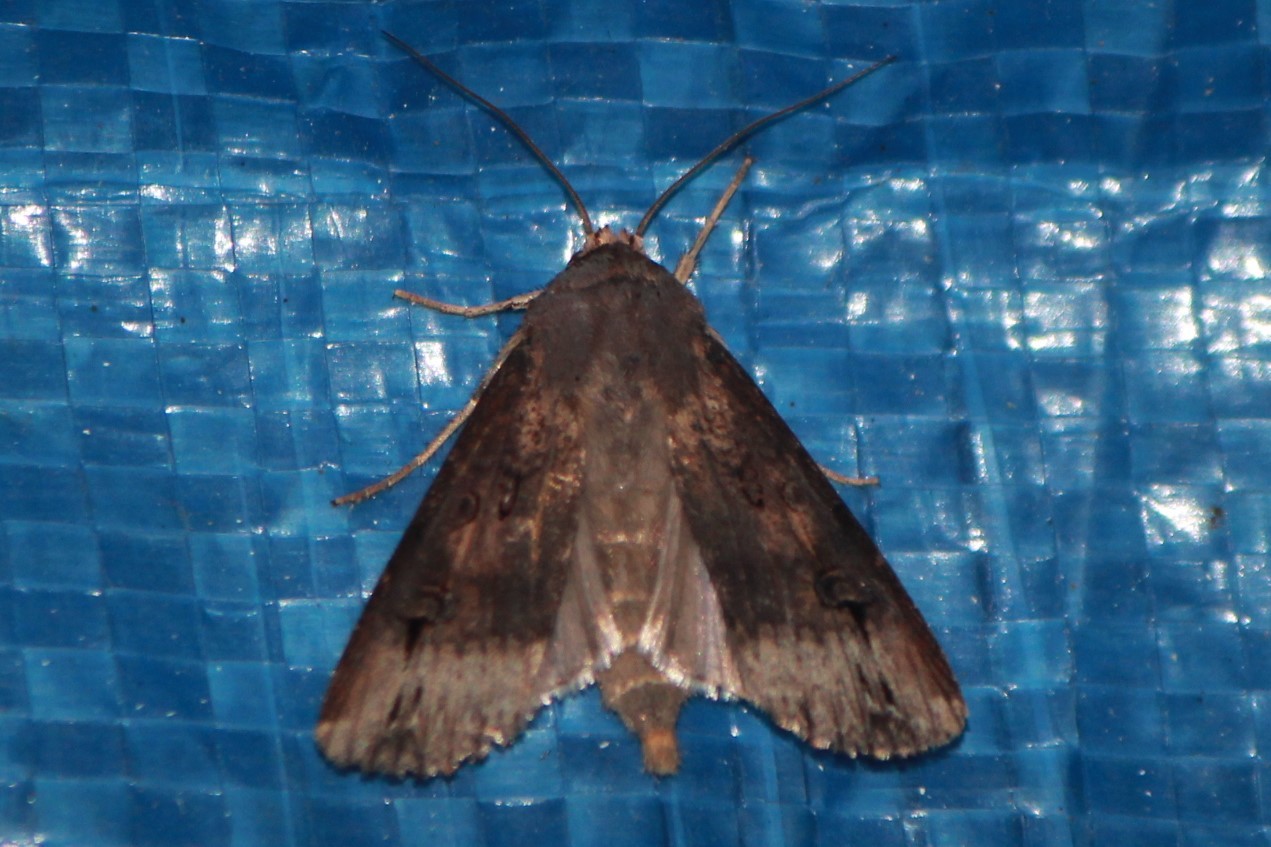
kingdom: Animalia
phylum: Arthropoda
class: Insecta
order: Lepidoptera
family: Noctuidae
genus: Agrotis
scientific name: Agrotis ipsilon
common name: Dark sword-grass
